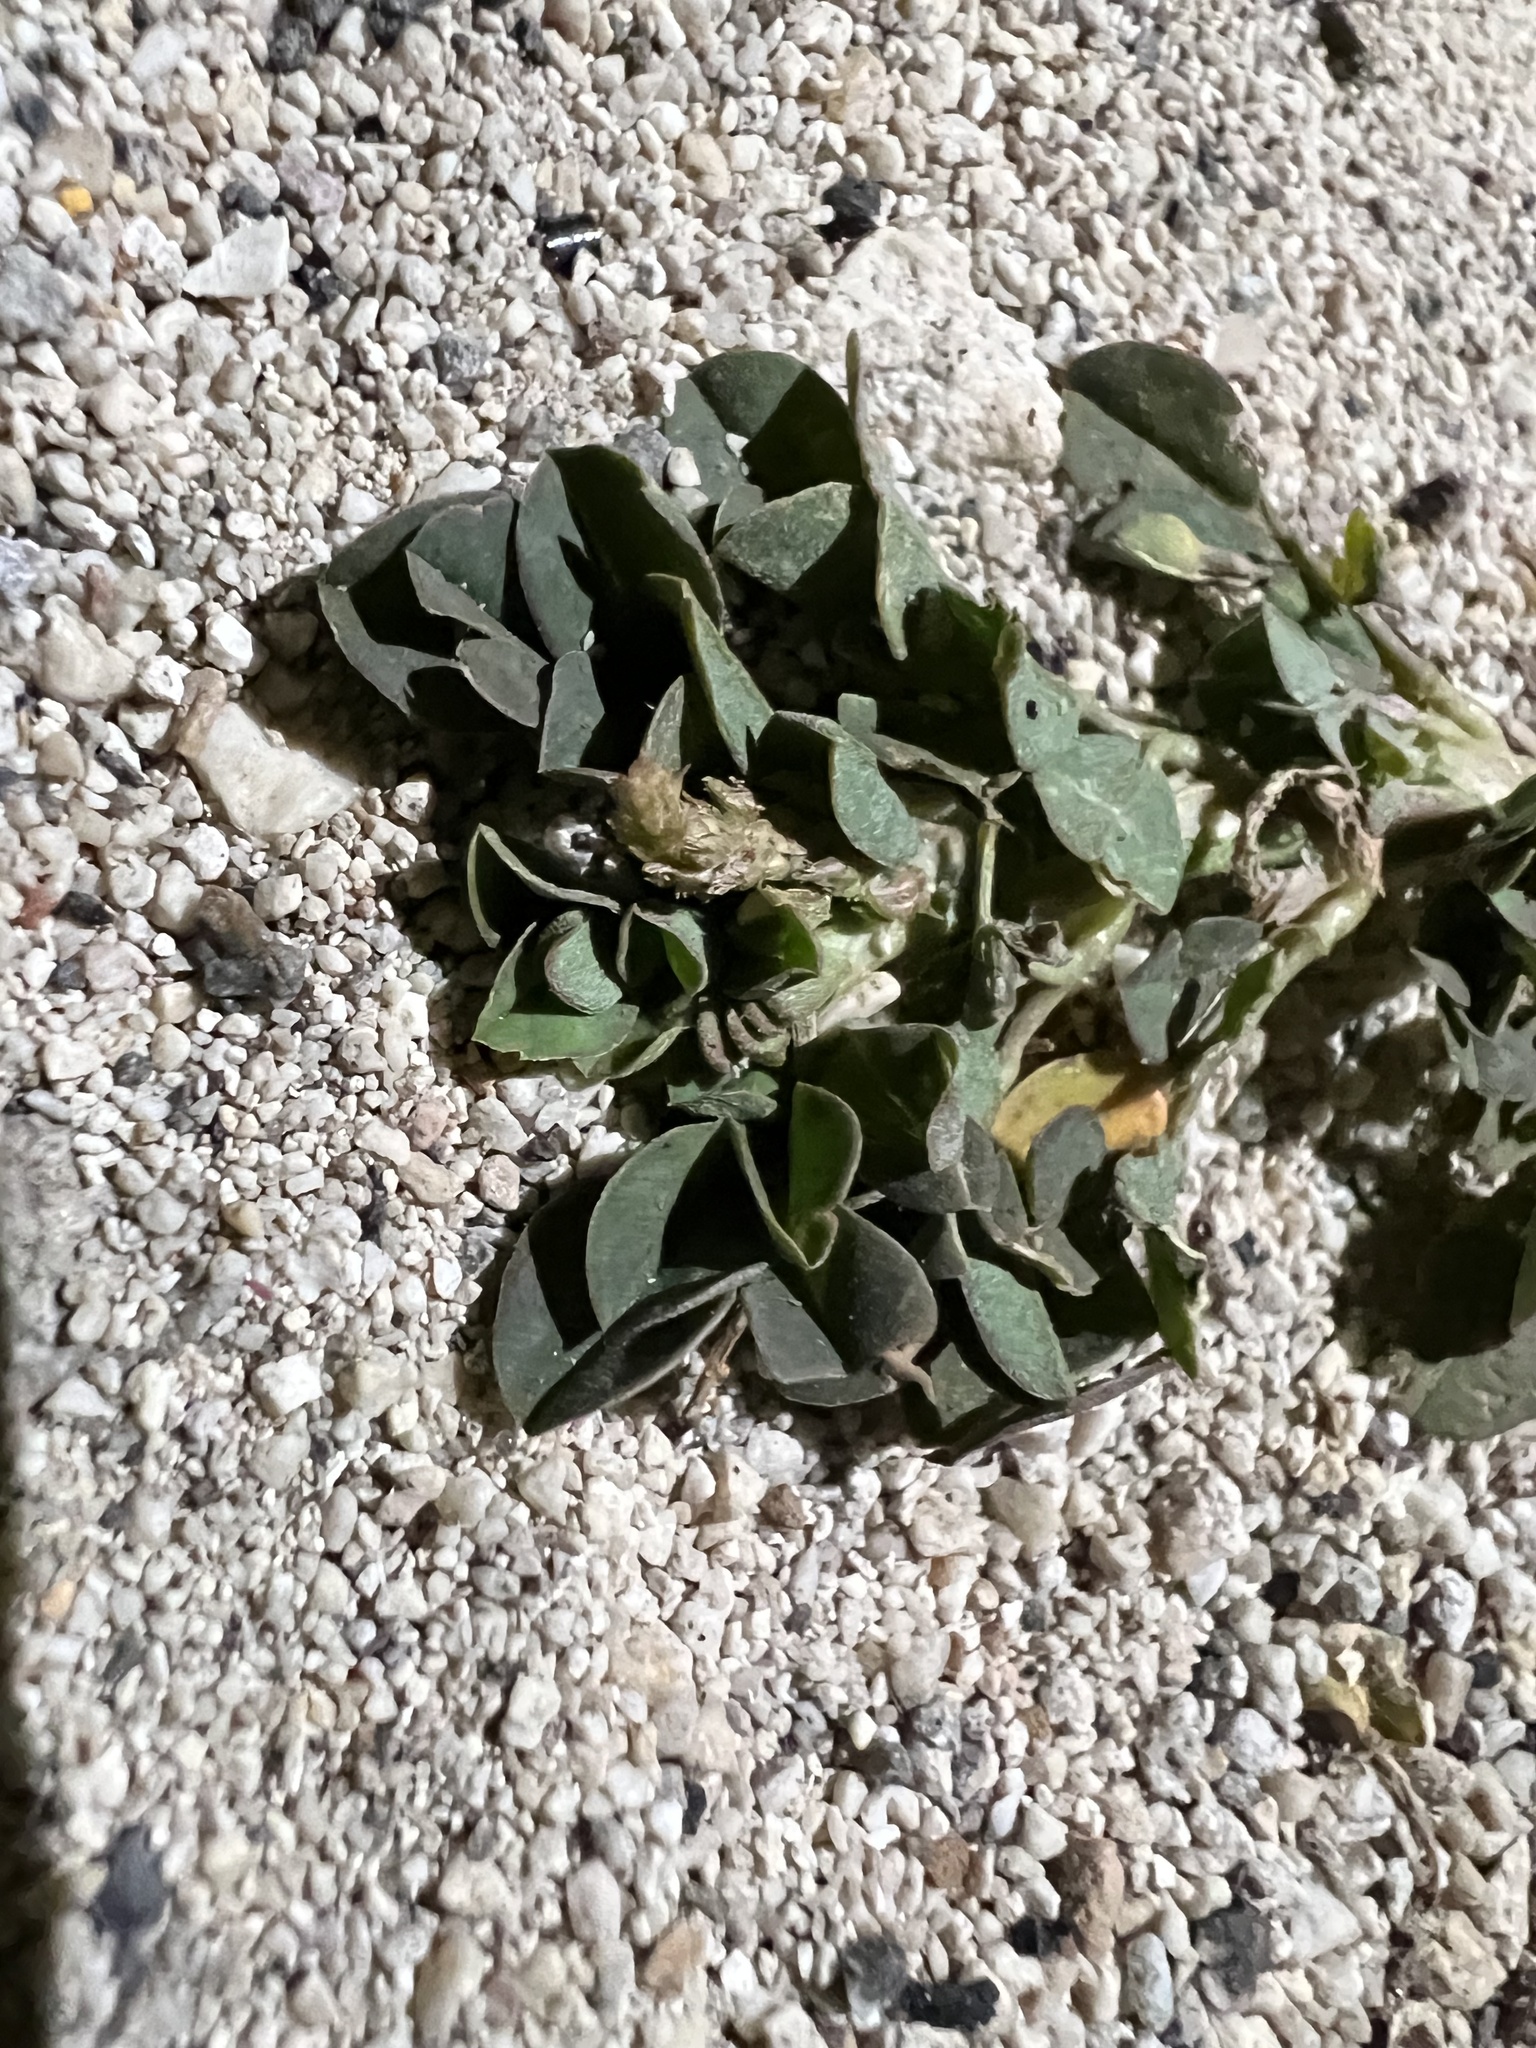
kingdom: Plantae
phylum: Tracheophyta
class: Magnoliopsida
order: Fabales
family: Fabaceae
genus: Indigofera
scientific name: Indigofera spicata
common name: Creeping indigo
